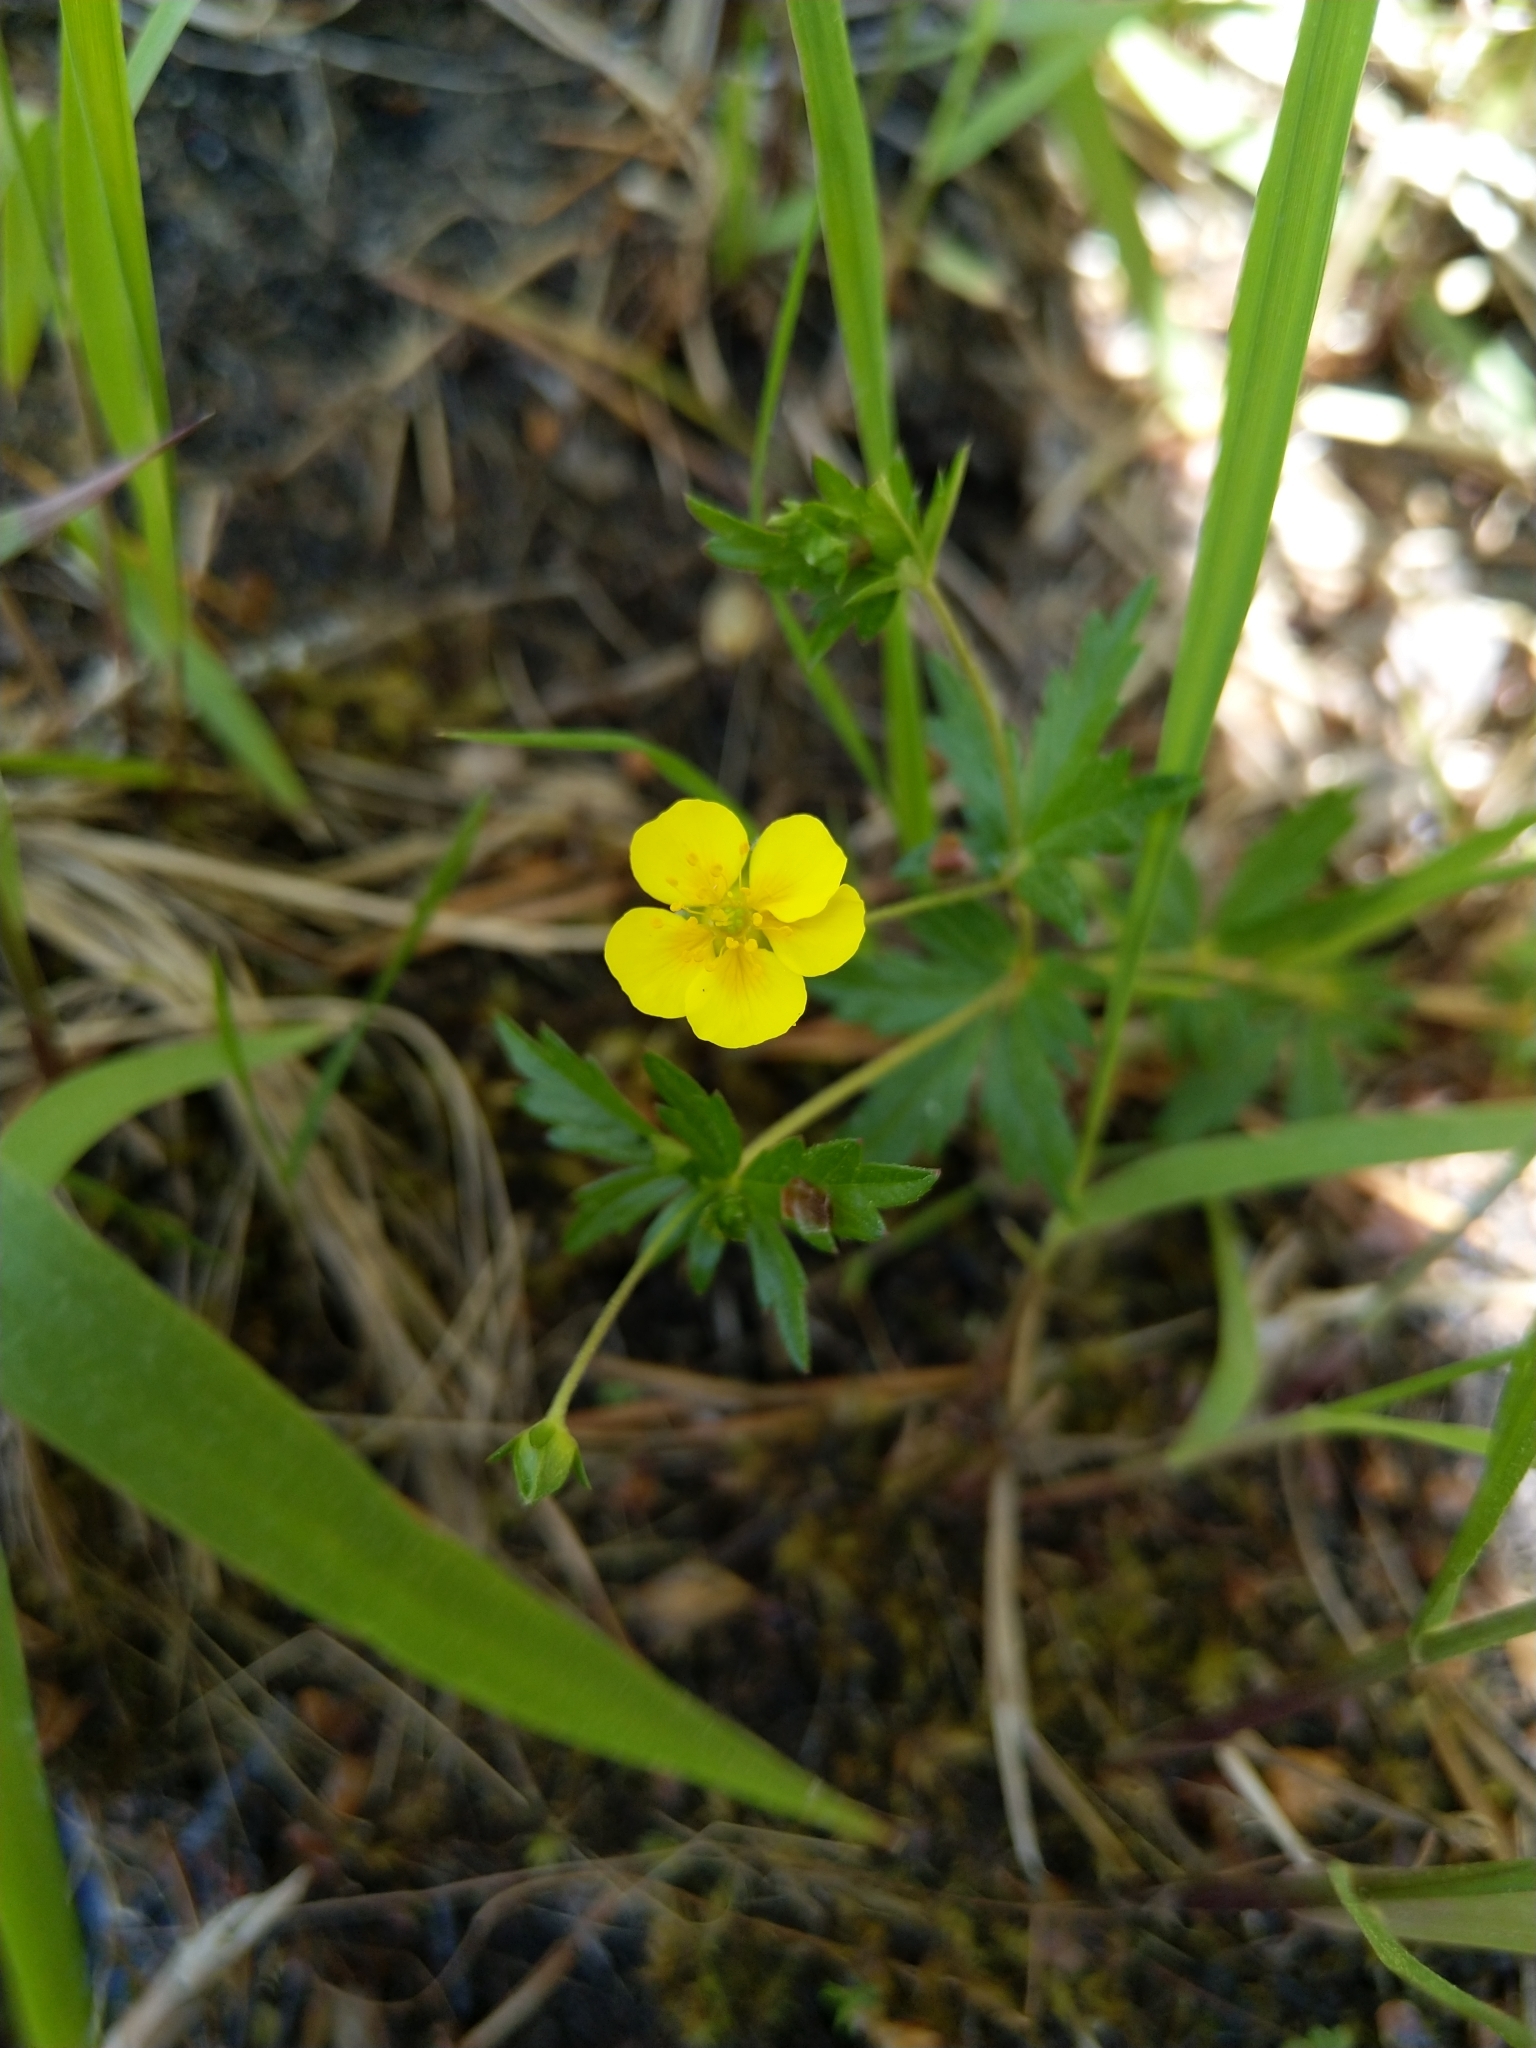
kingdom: Plantae
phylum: Tracheophyta
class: Magnoliopsida
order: Rosales
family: Rosaceae
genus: Potentilla
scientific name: Potentilla erecta
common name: Tormentil
